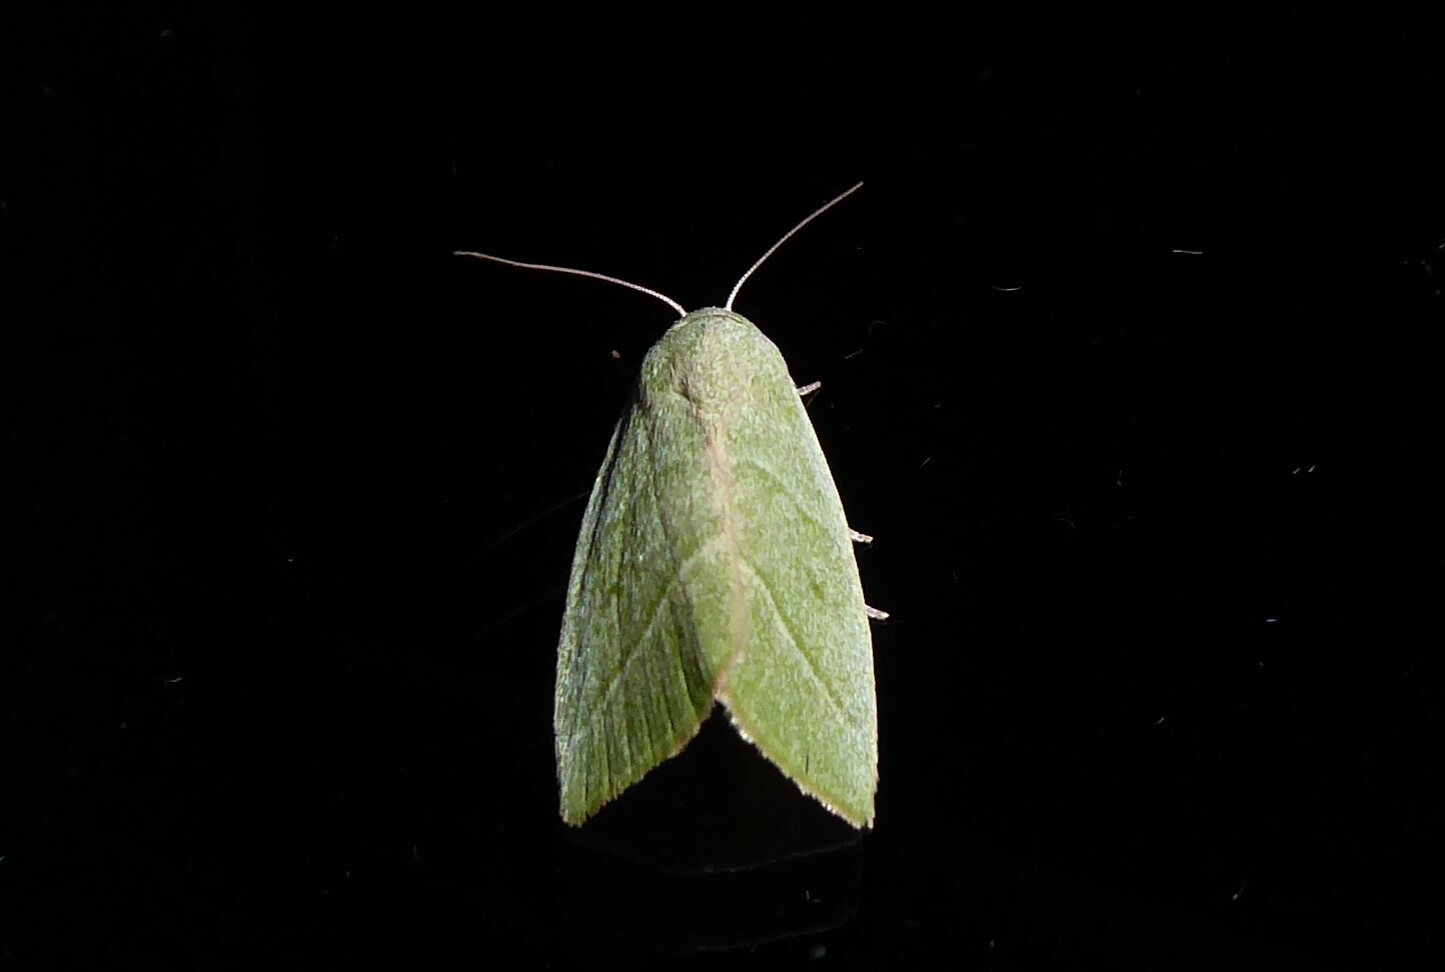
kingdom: Animalia
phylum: Arthropoda
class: Insecta
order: Lepidoptera
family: Nolidae
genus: Earias
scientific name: Earias subviridis
